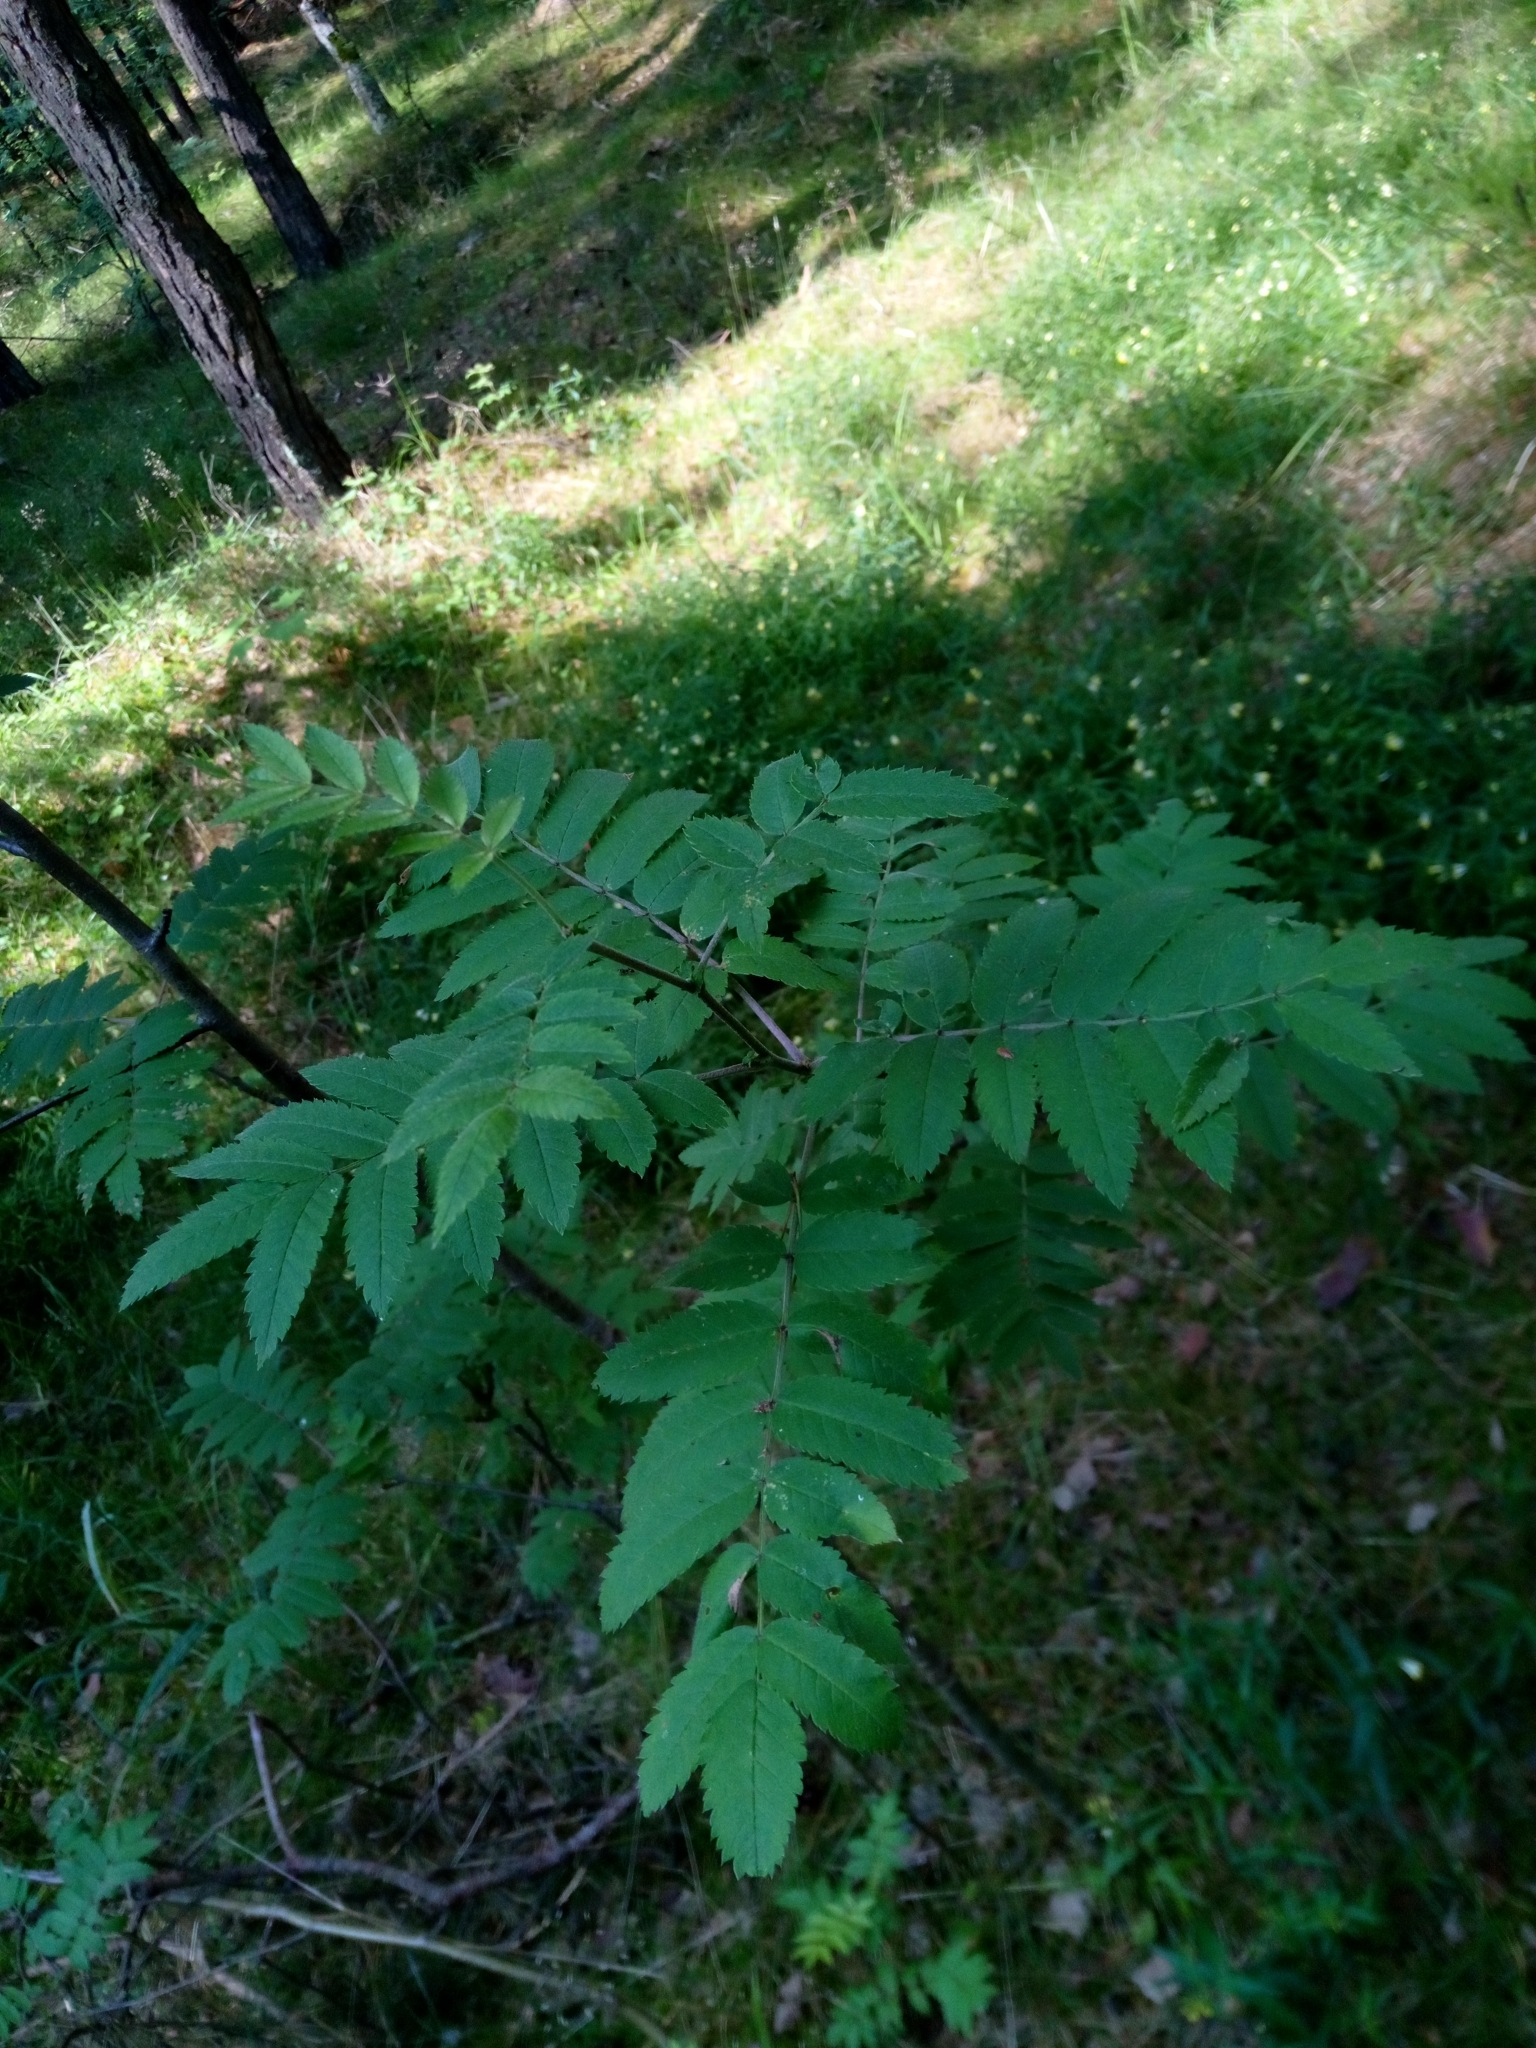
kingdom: Plantae
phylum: Tracheophyta
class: Magnoliopsida
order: Rosales
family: Rosaceae
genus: Sorbus
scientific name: Sorbus aucuparia
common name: Rowan
